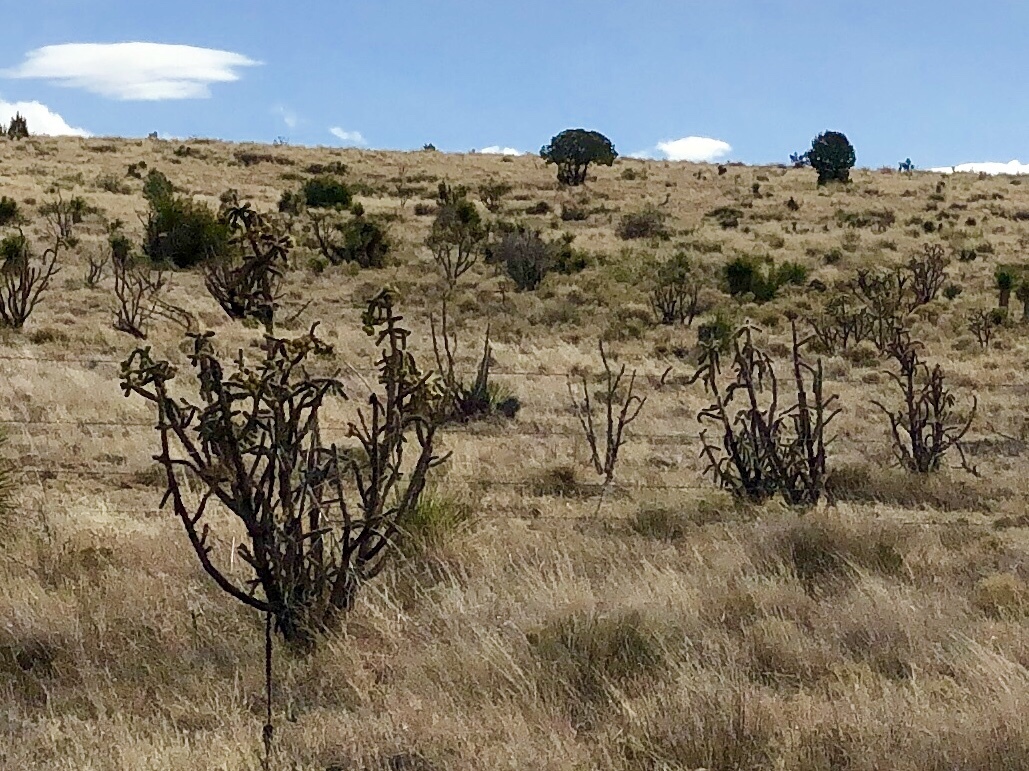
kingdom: Plantae
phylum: Tracheophyta
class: Magnoliopsida
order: Caryophyllales
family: Cactaceae
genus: Cylindropuntia
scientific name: Cylindropuntia imbricata
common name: Candelabrum cactus
